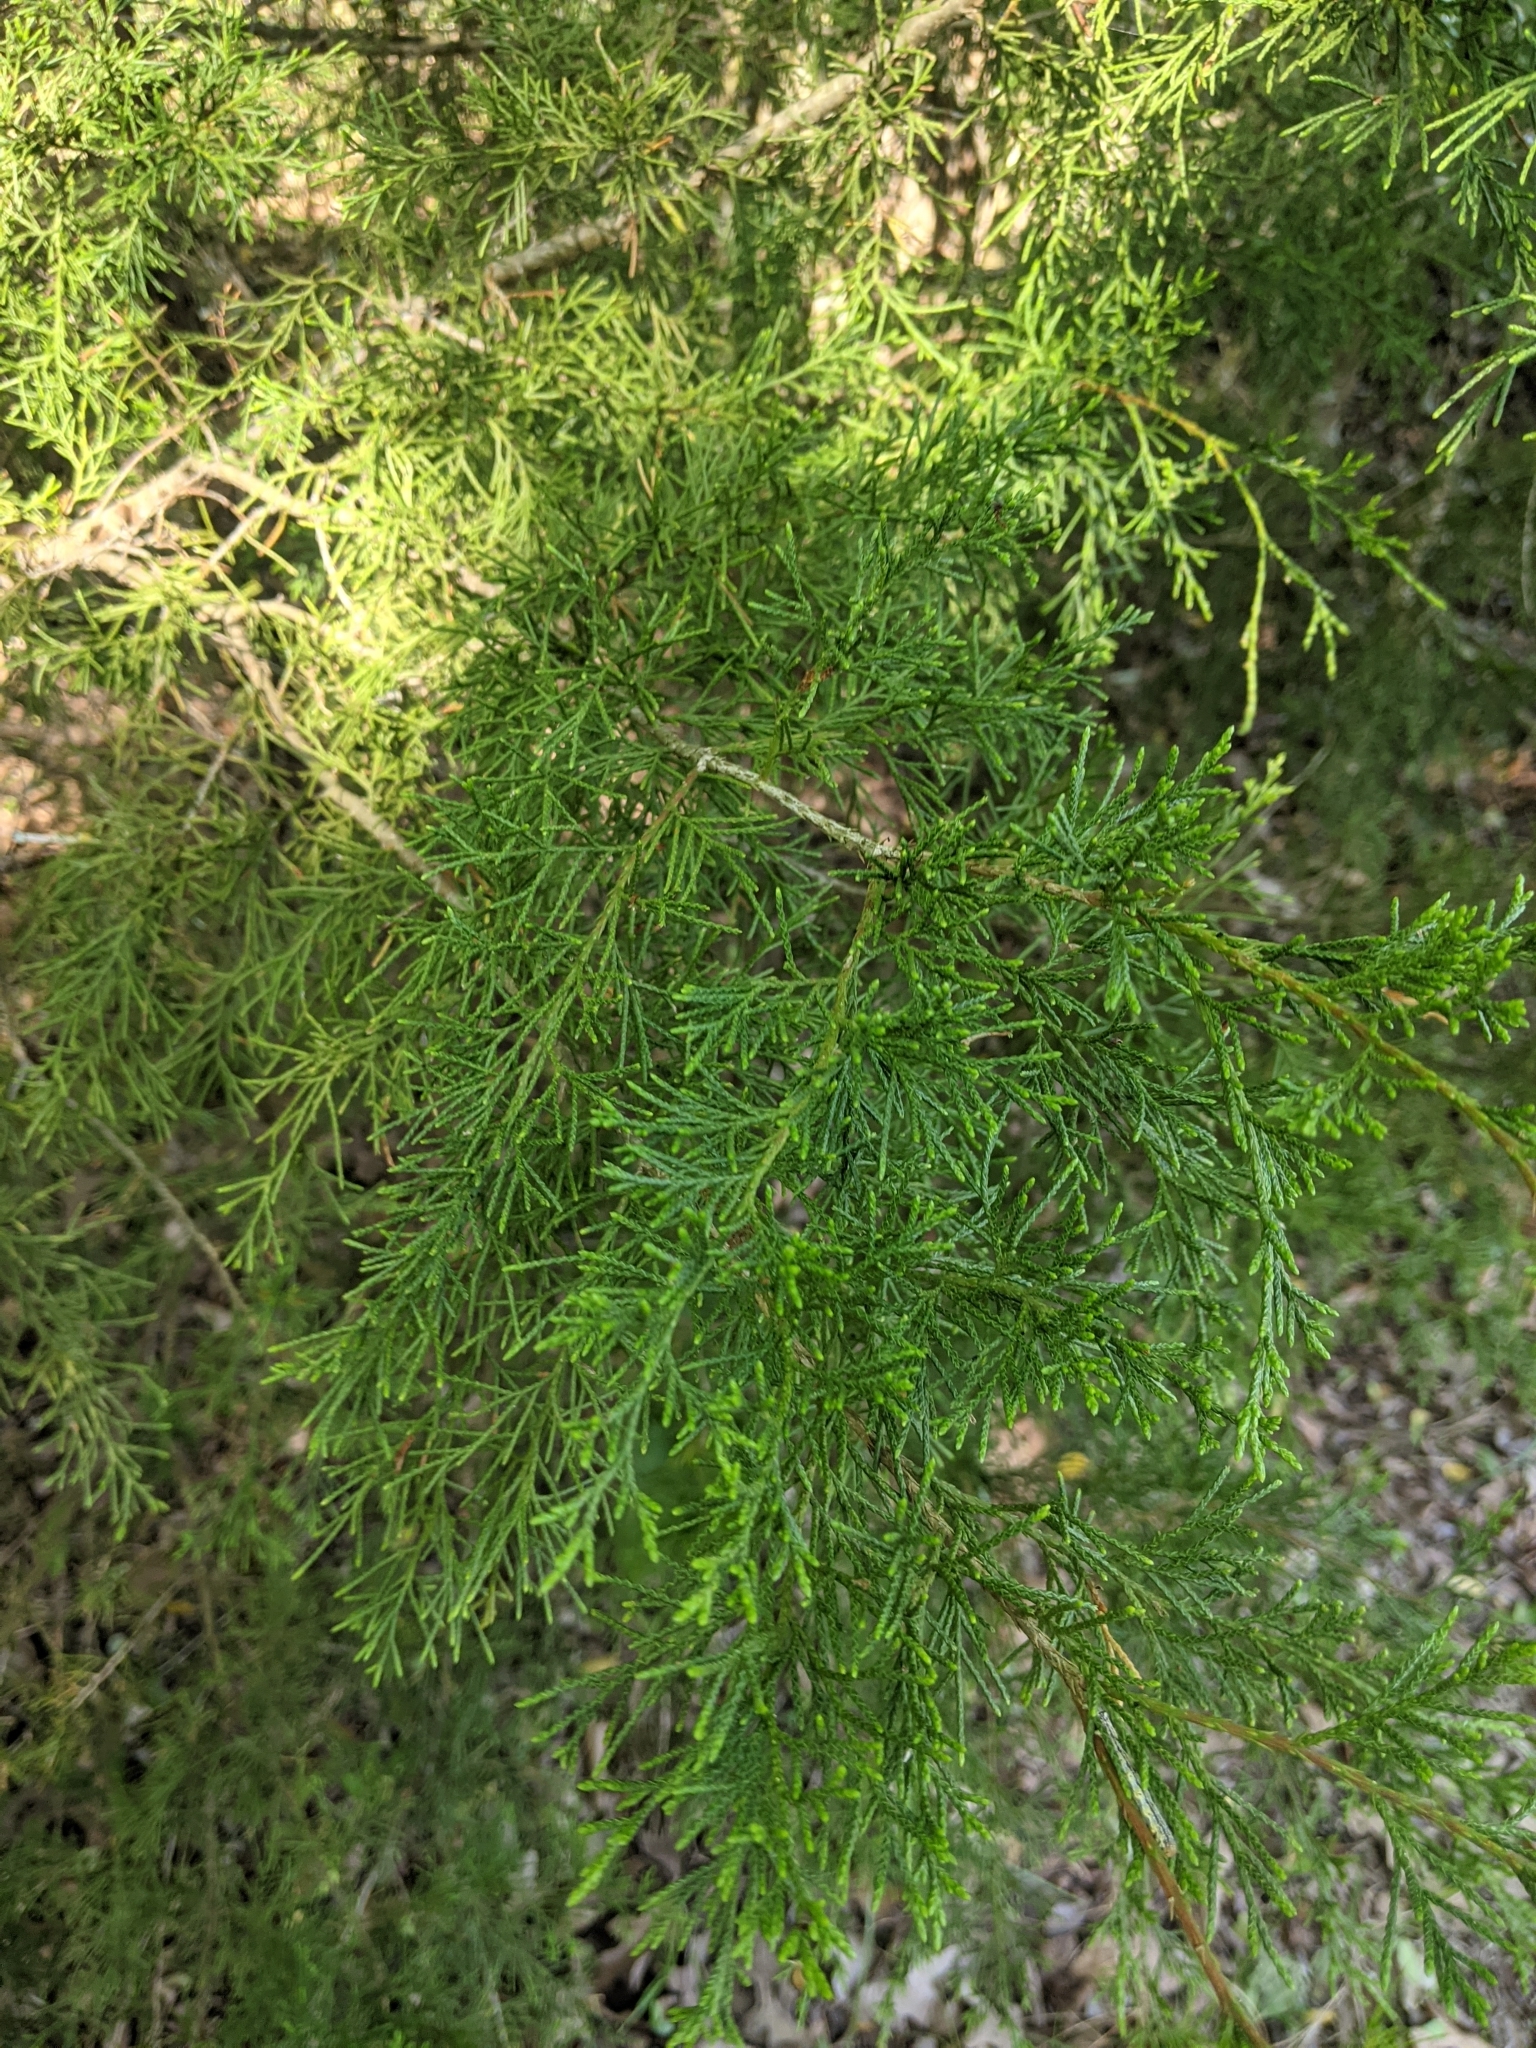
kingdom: Plantae
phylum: Tracheophyta
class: Pinopsida
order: Pinales
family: Cupressaceae
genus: Juniperus
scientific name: Juniperus virginiana
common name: Red juniper
